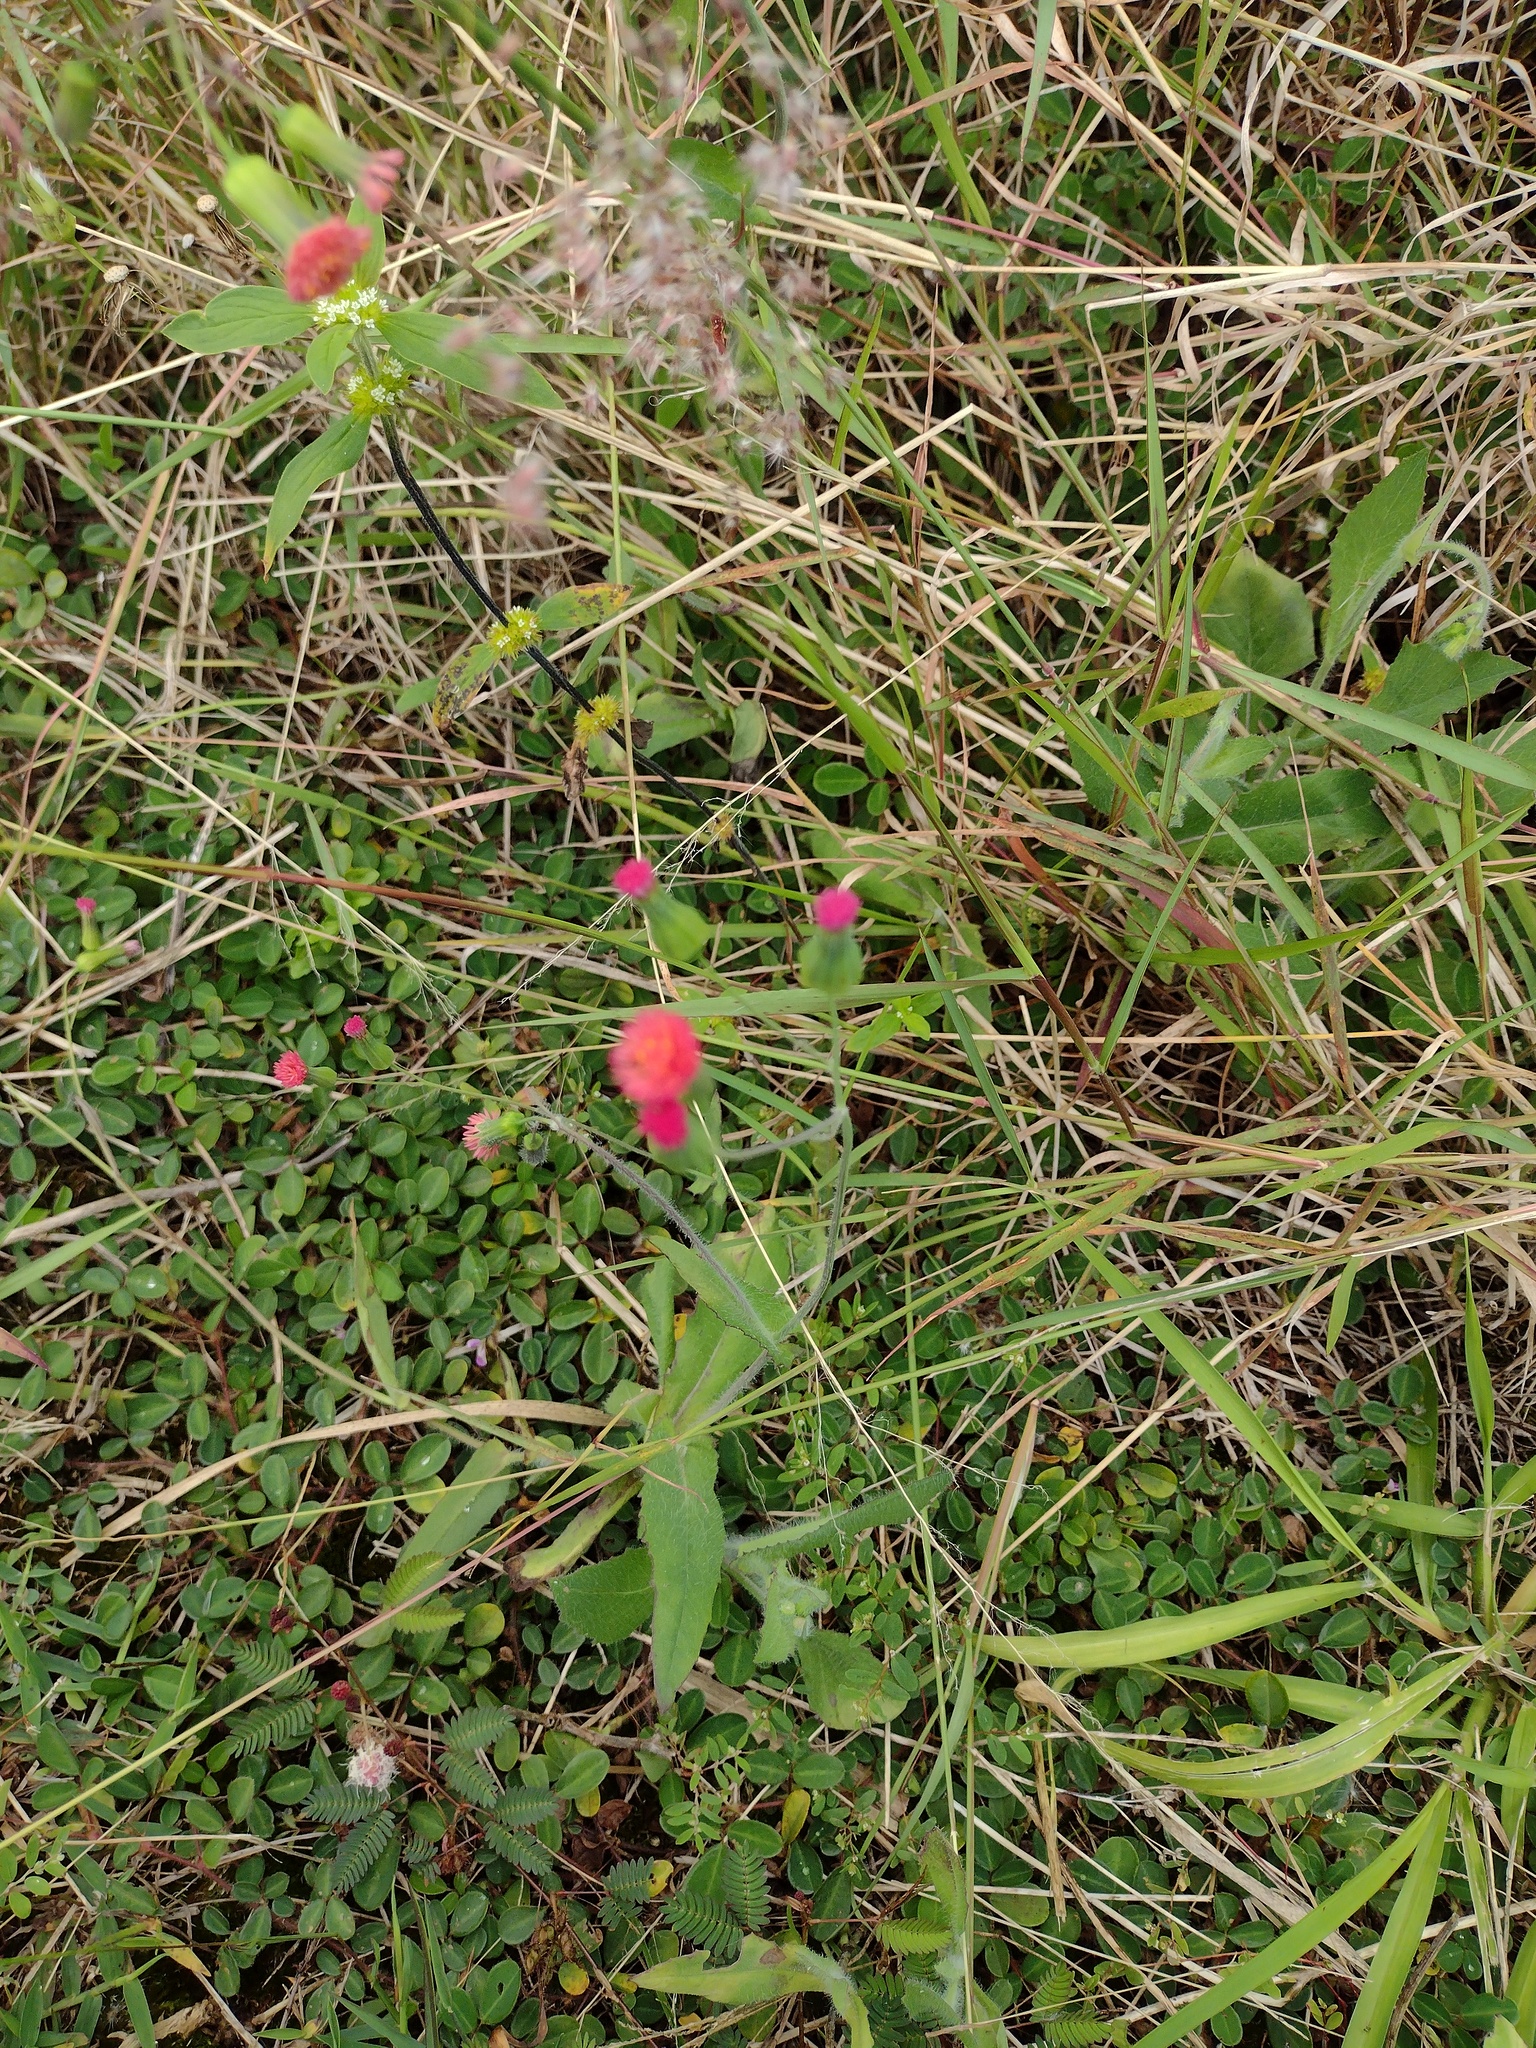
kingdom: Plantae
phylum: Tracheophyta
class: Magnoliopsida
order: Asterales
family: Asteraceae
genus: Emilia
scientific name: Emilia fosbergii
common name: Florida tasselflower
